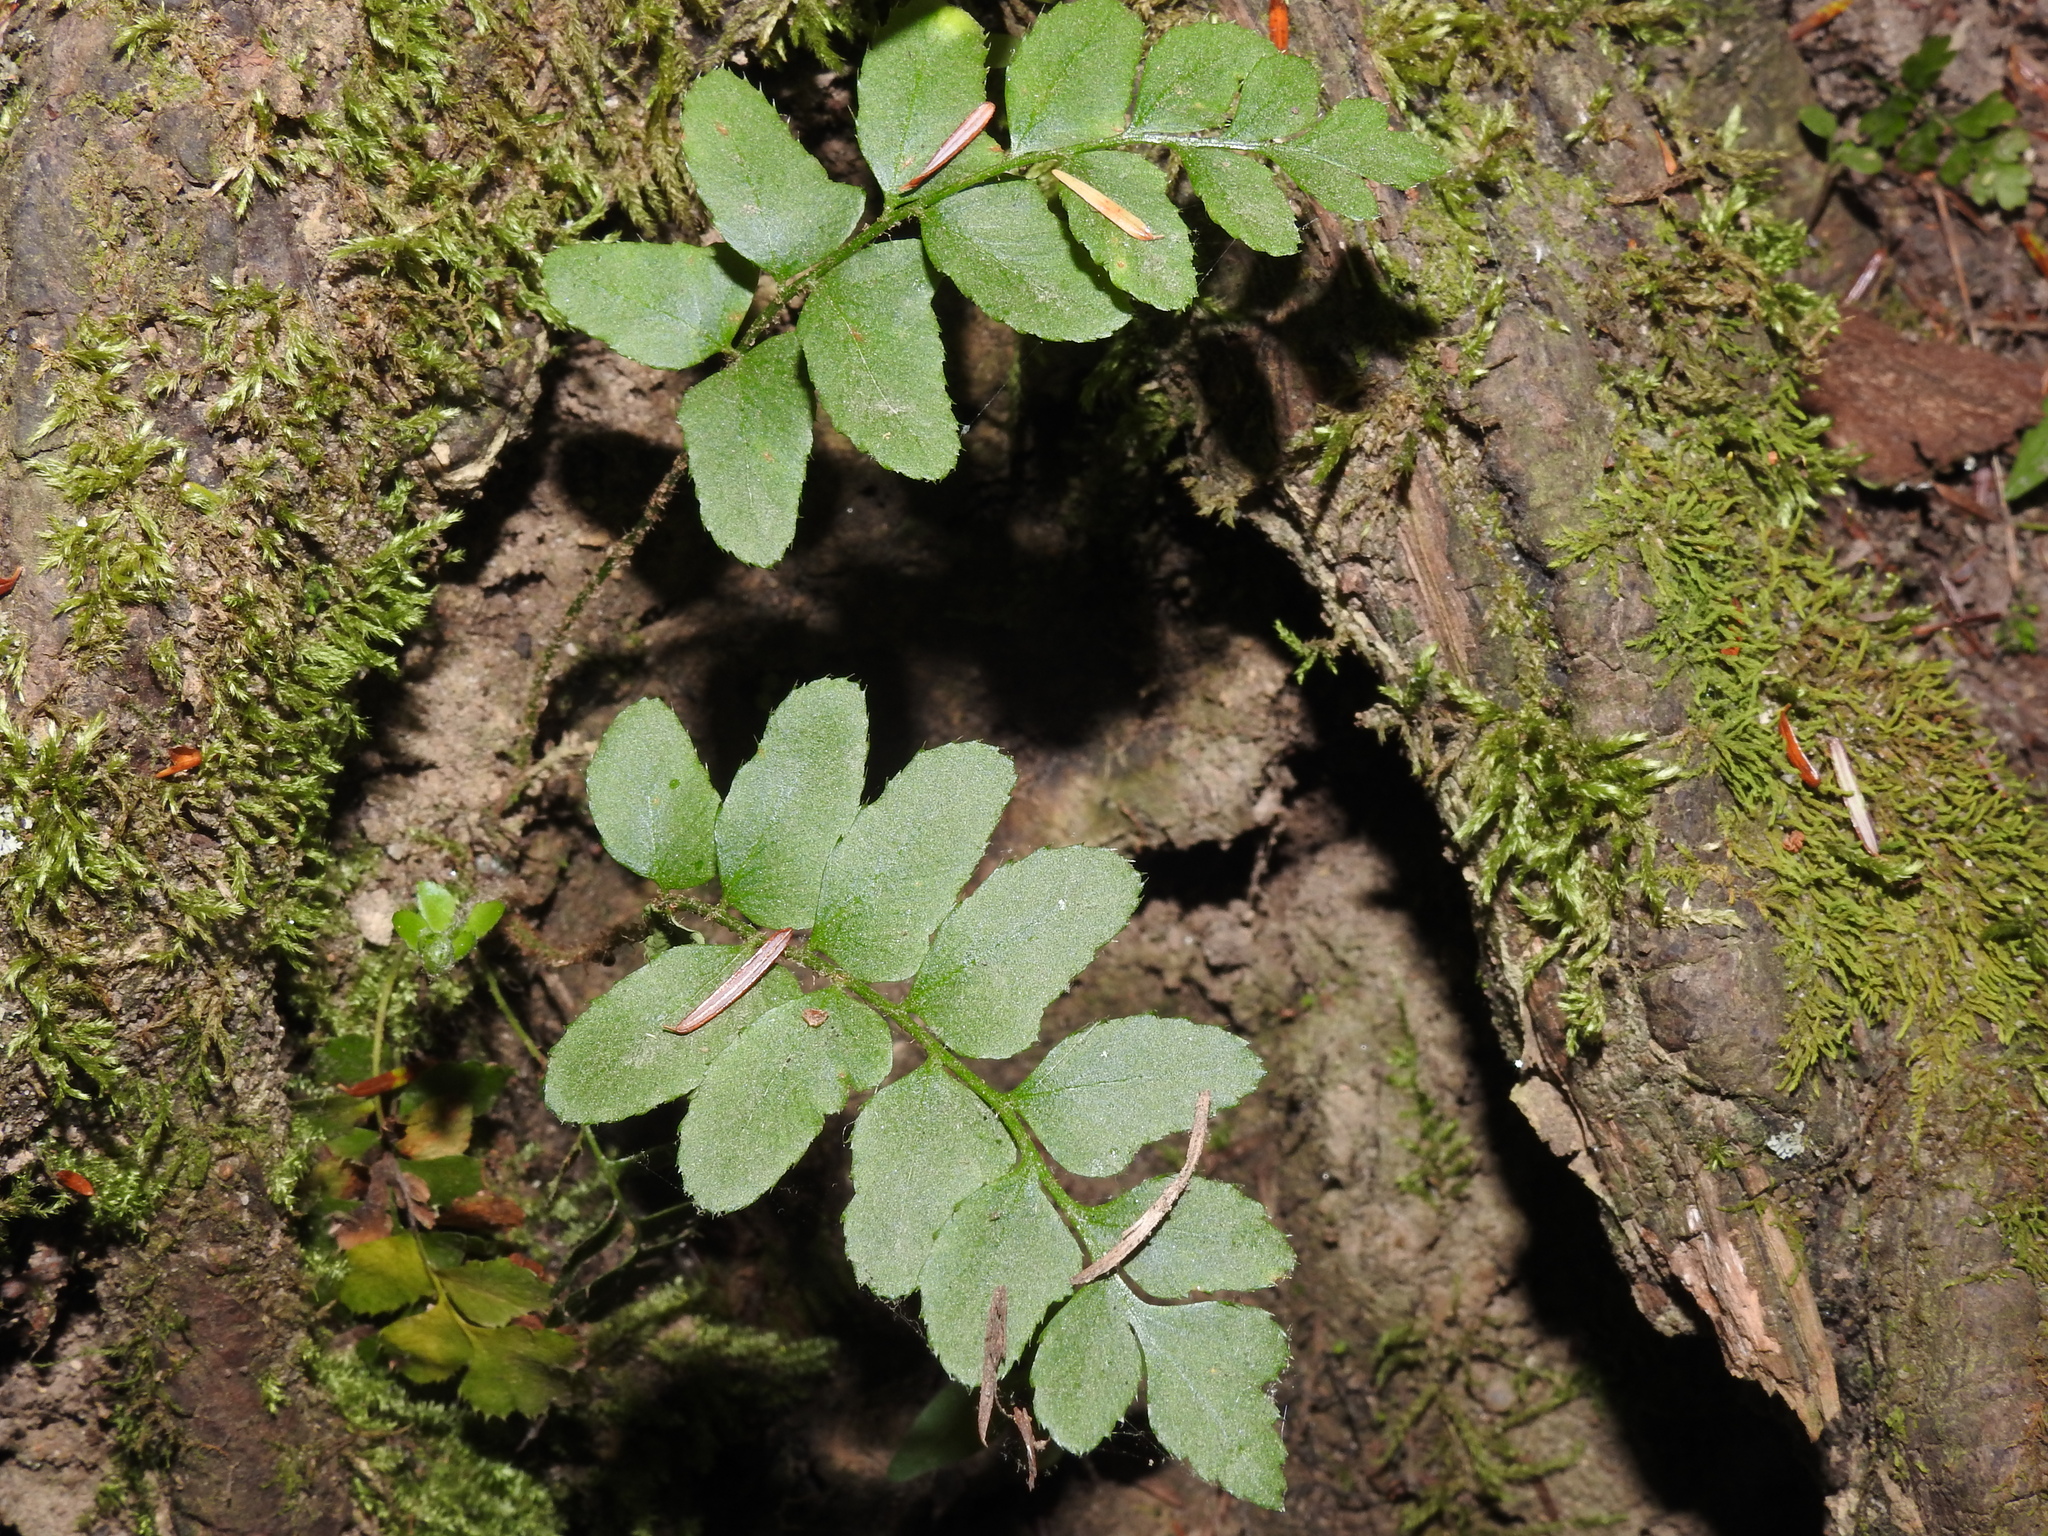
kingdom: Plantae
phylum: Tracheophyta
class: Polypodiopsida
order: Polypodiales
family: Dryopteridaceae
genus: Polystichum
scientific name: Polystichum acrostichoides
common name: Christmas fern
